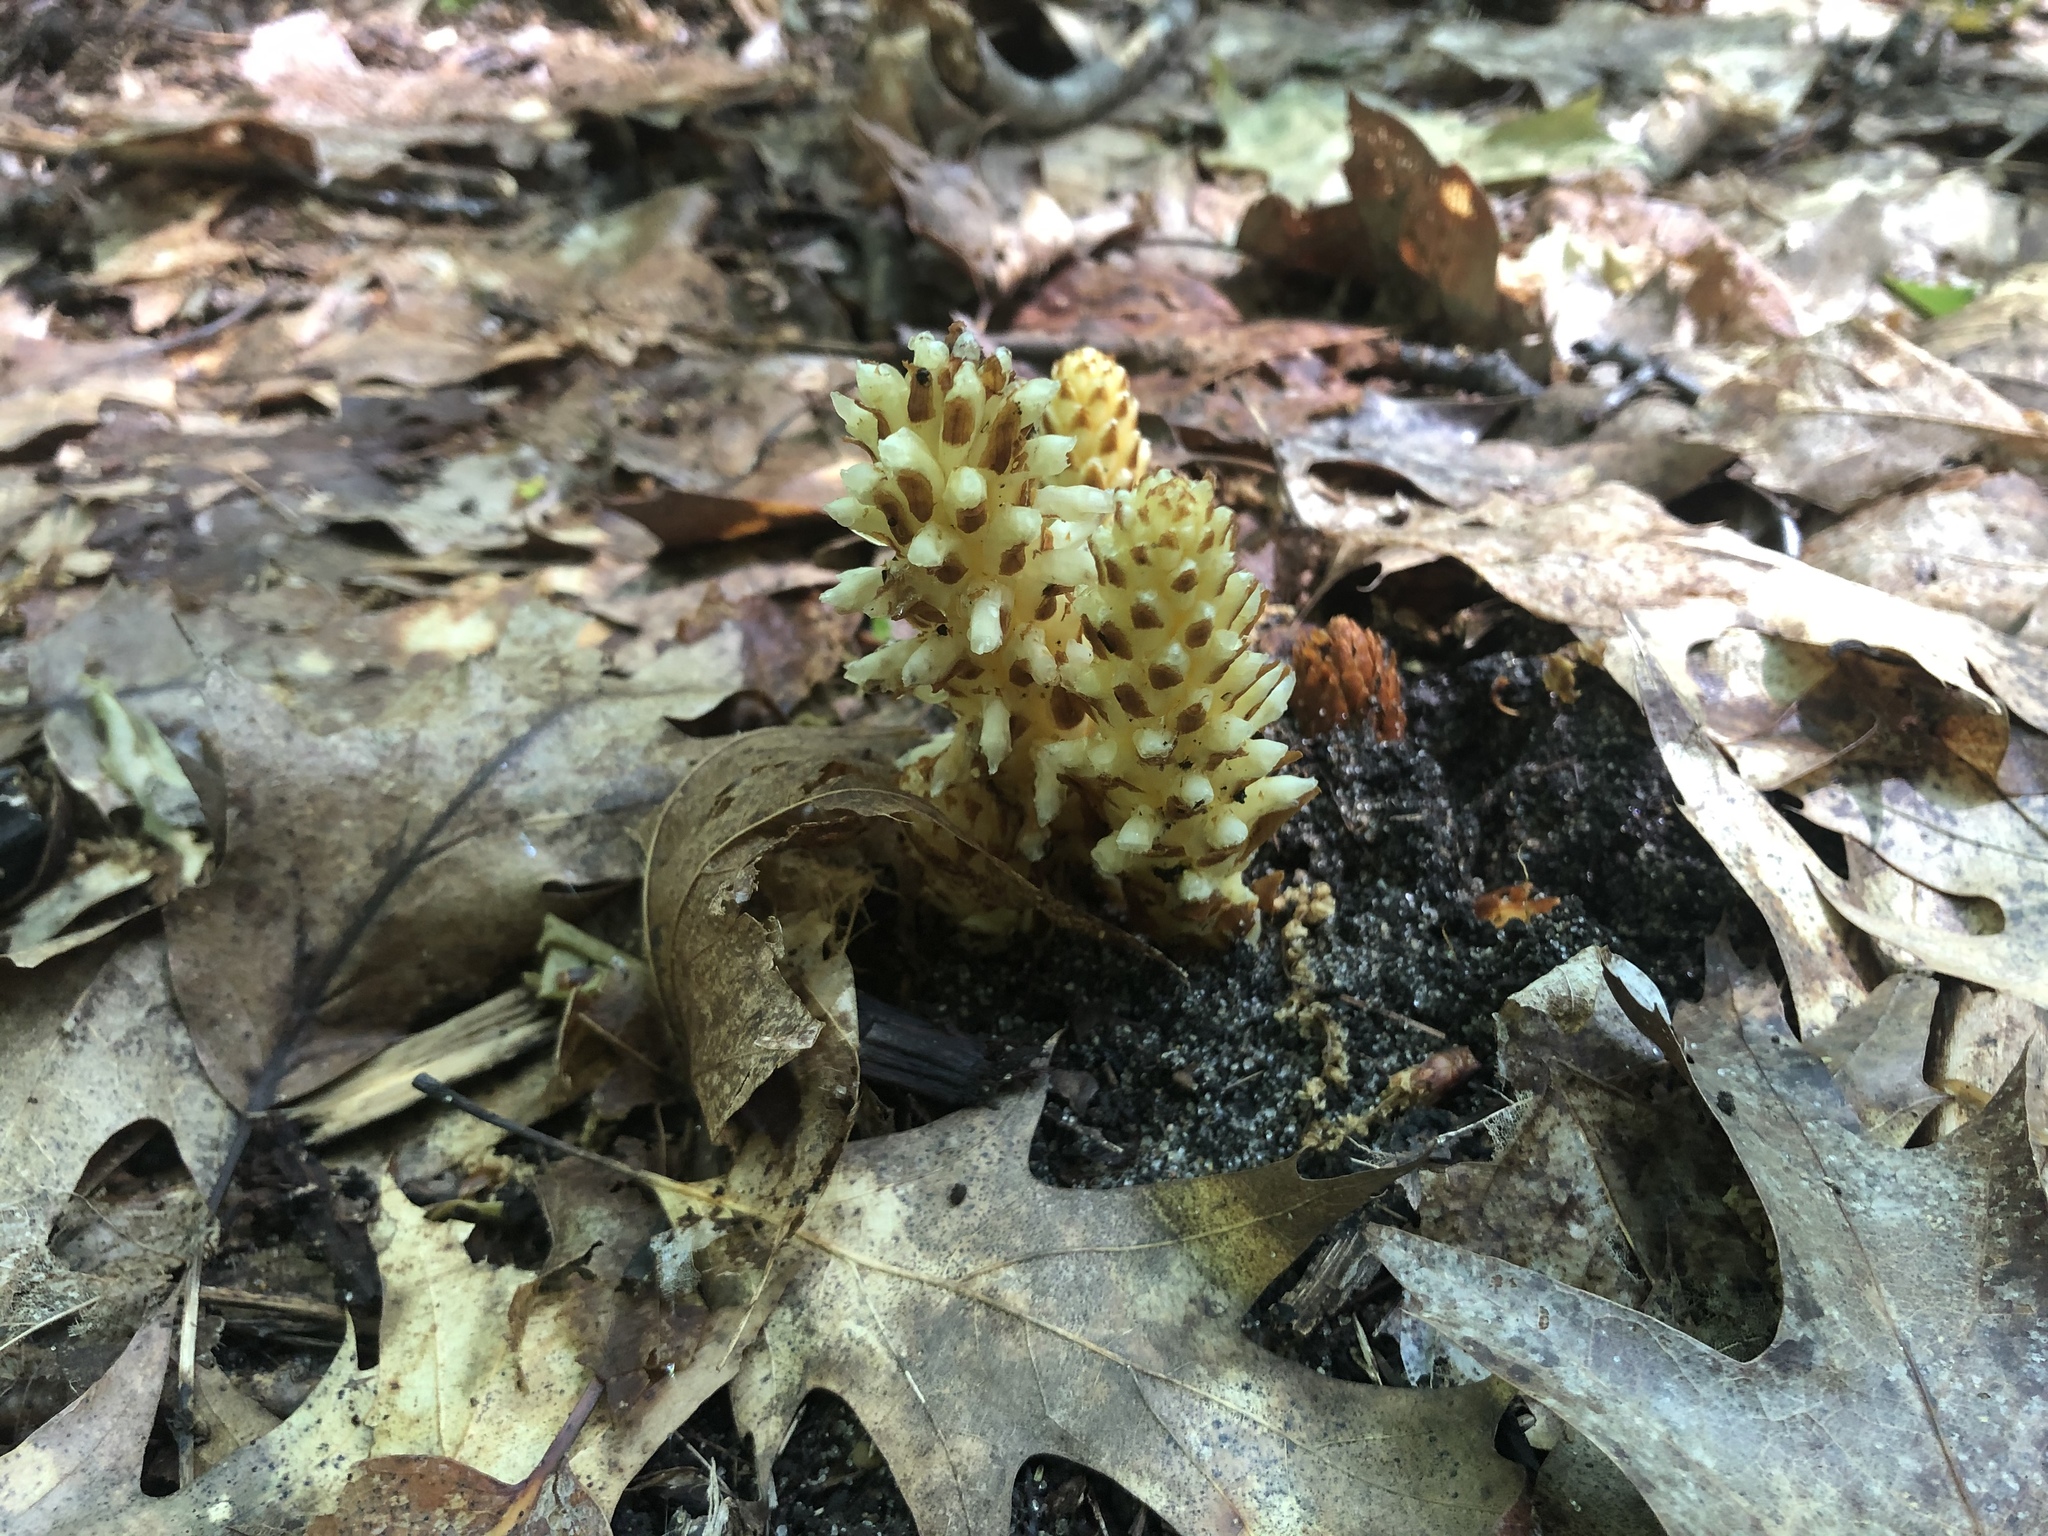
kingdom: Plantae
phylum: Tracheophyta
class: Magnoliopsida
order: Lamiales
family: Orobanchaceae
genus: Conopholis
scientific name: Conopholis americana
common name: American cancer-root
